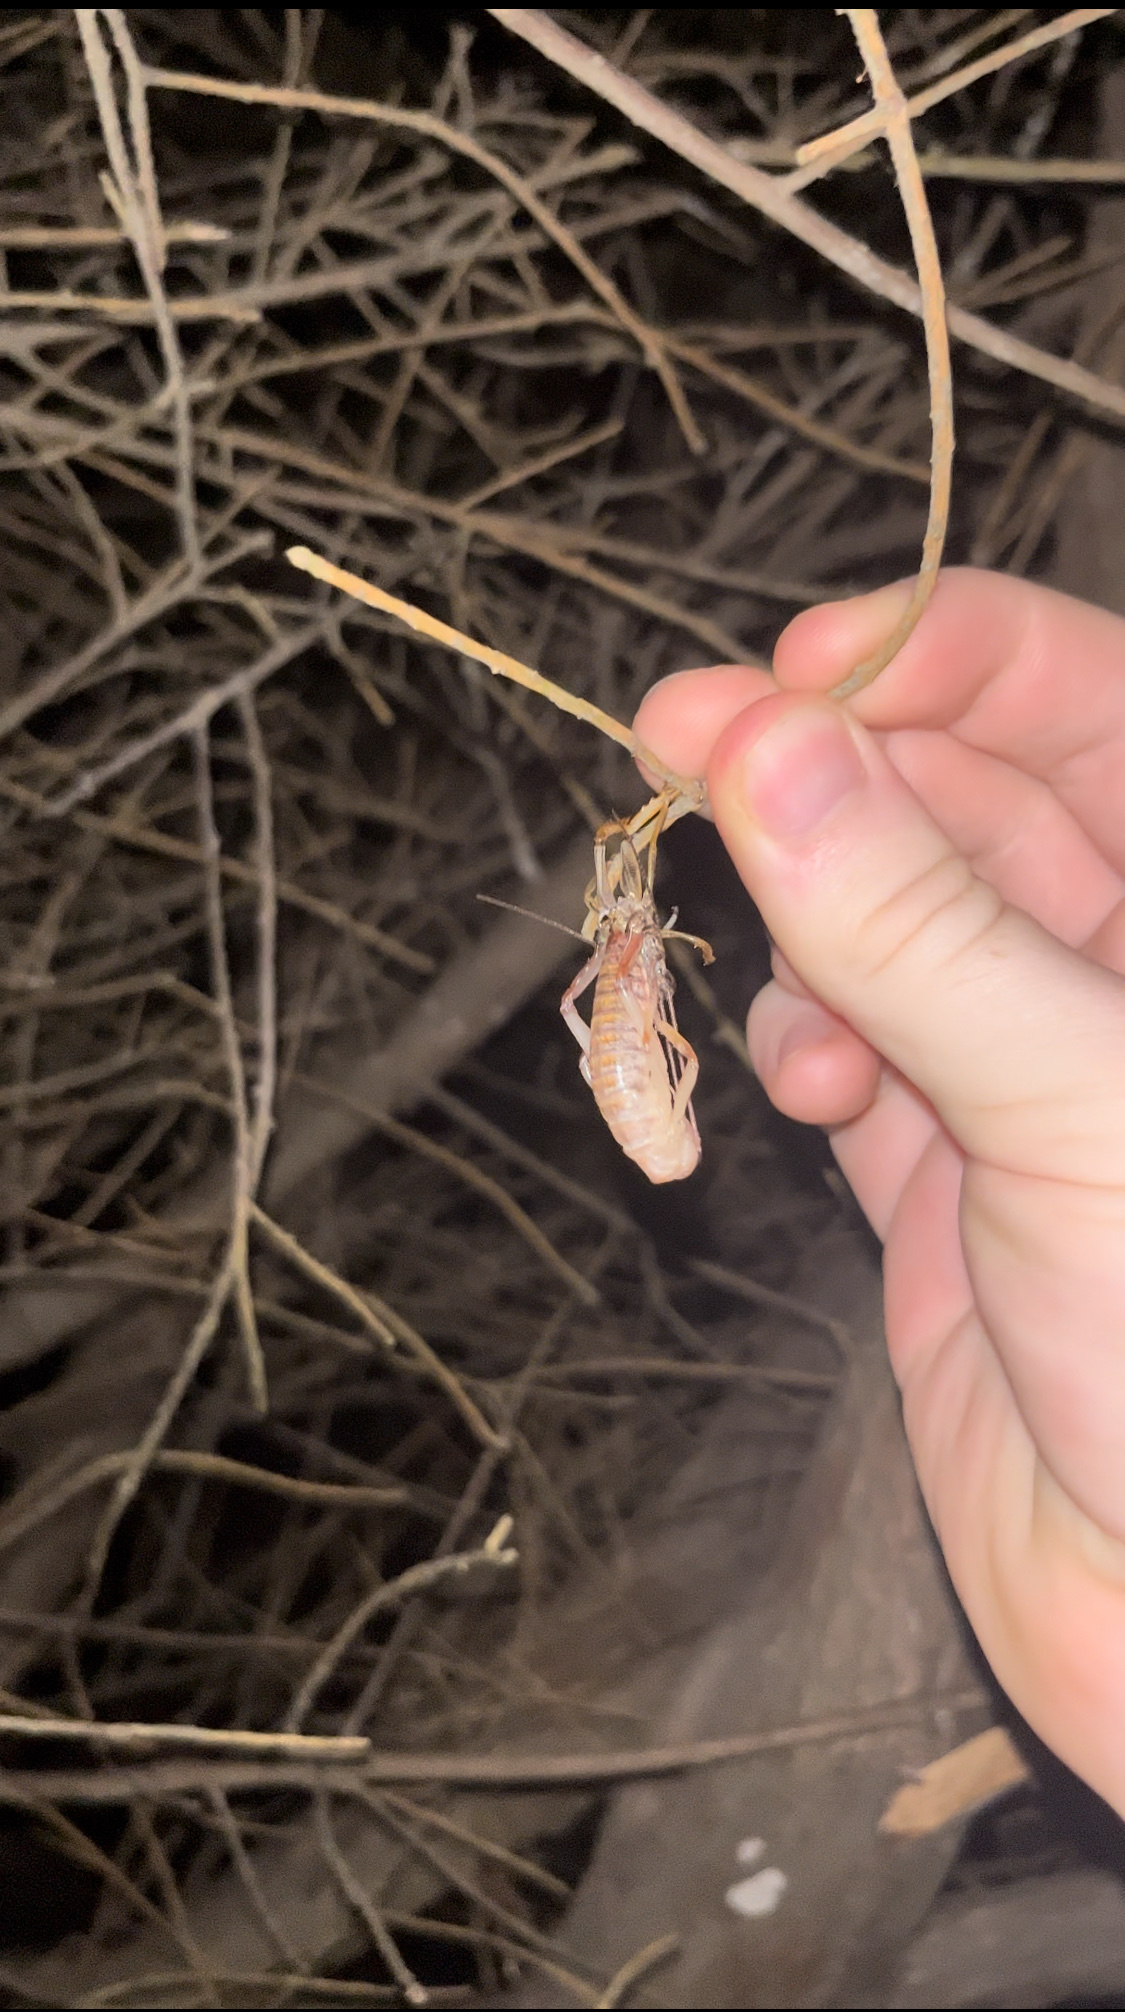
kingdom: Animalia
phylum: Arthropoda
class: Insecta
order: Orthoptera
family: Anostostomatidae
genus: Hemideina
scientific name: Hemideina thoracica
